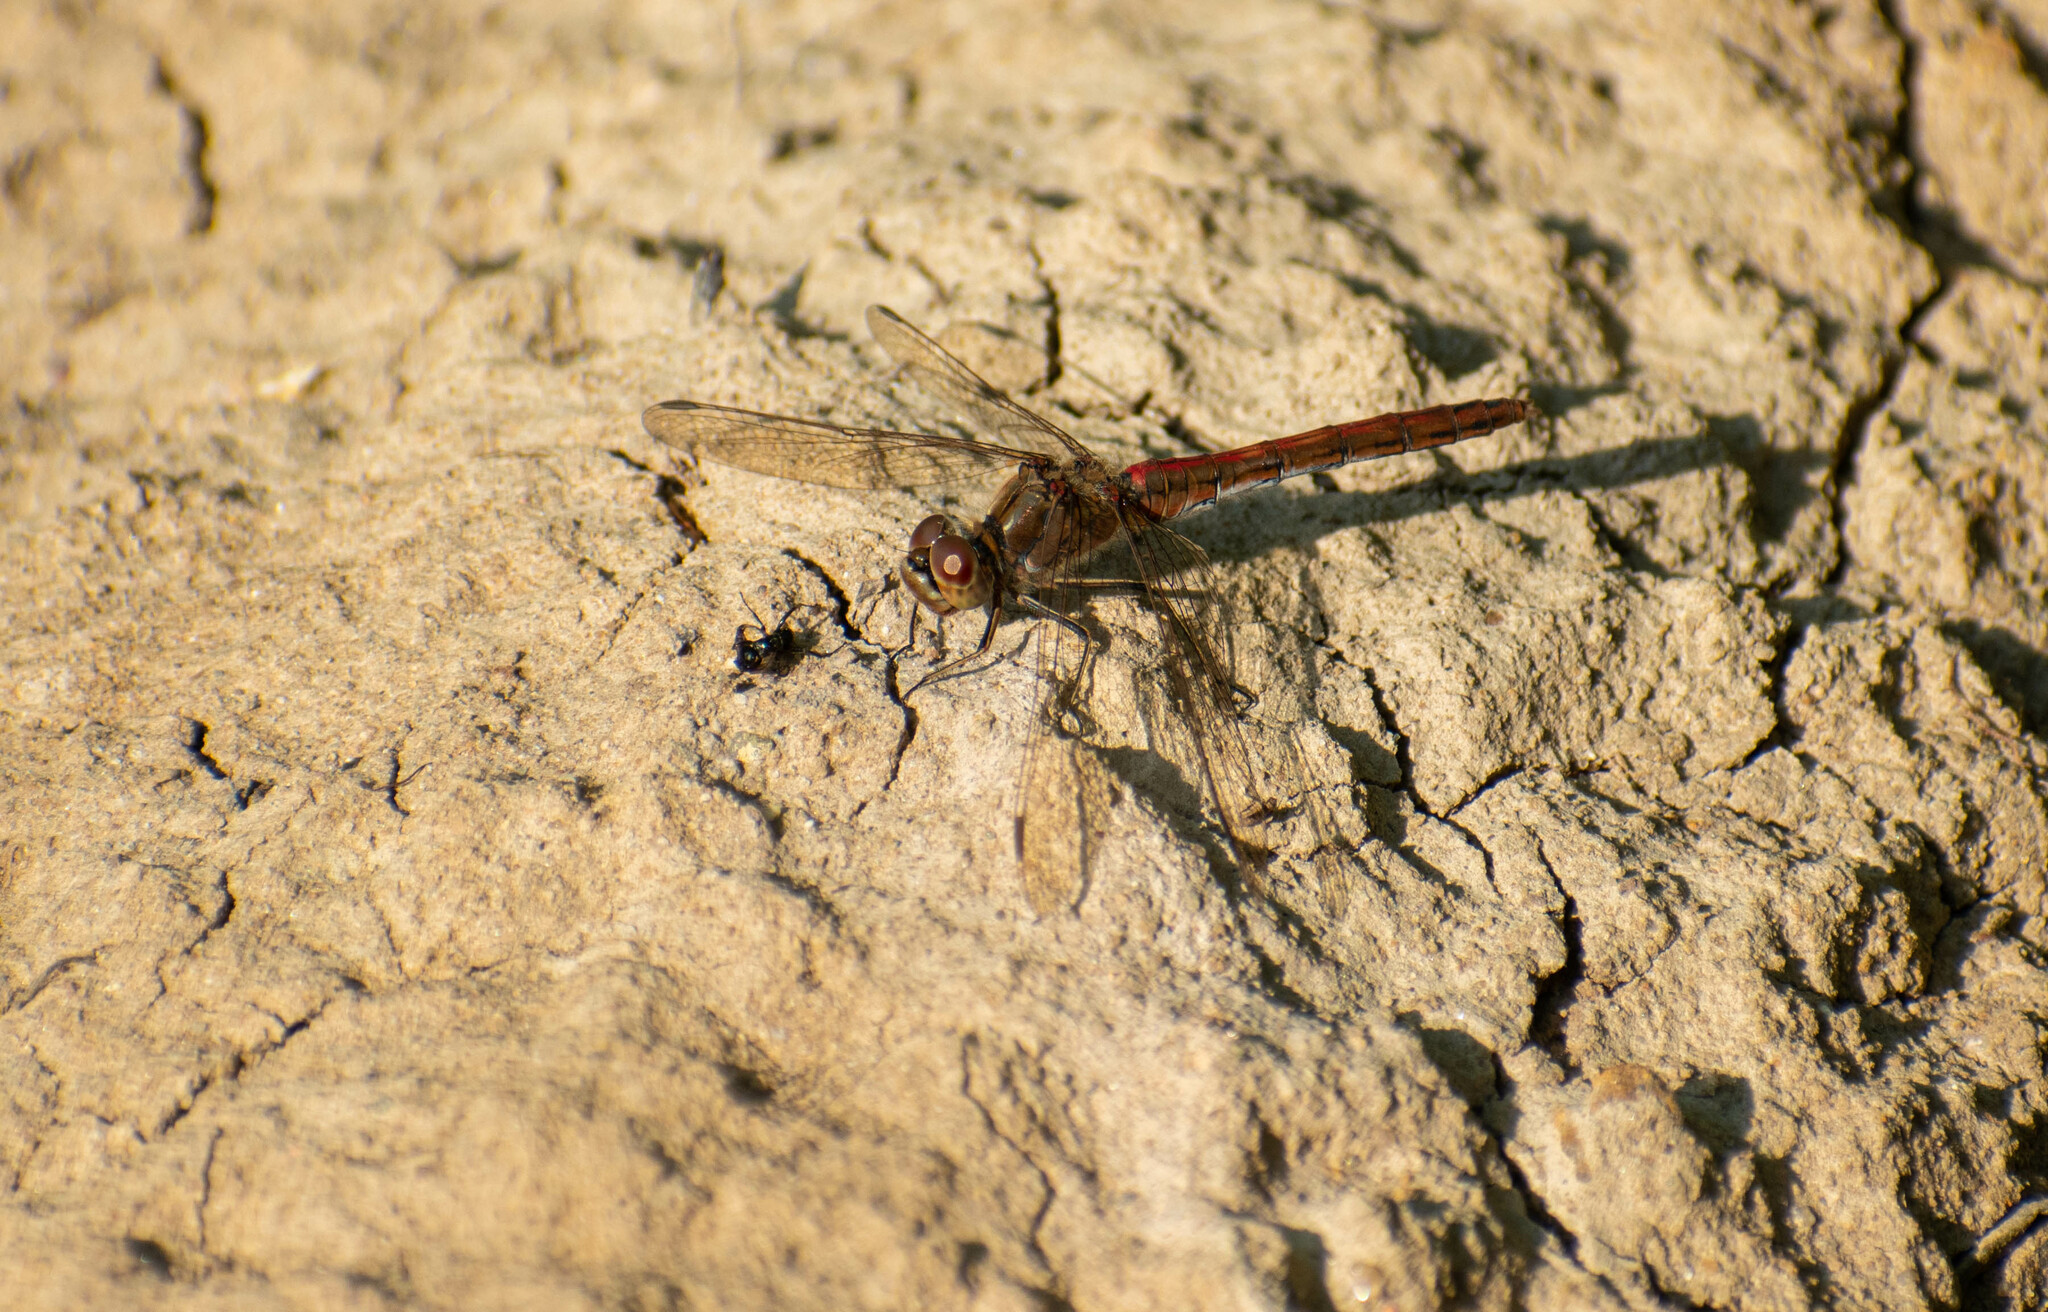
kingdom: Animalia
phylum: Arthropoda
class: Insecta
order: Odonata
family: Libellulidae
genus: Sympetrum
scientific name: Sympetrum vulgatum
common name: Vagrant darter
